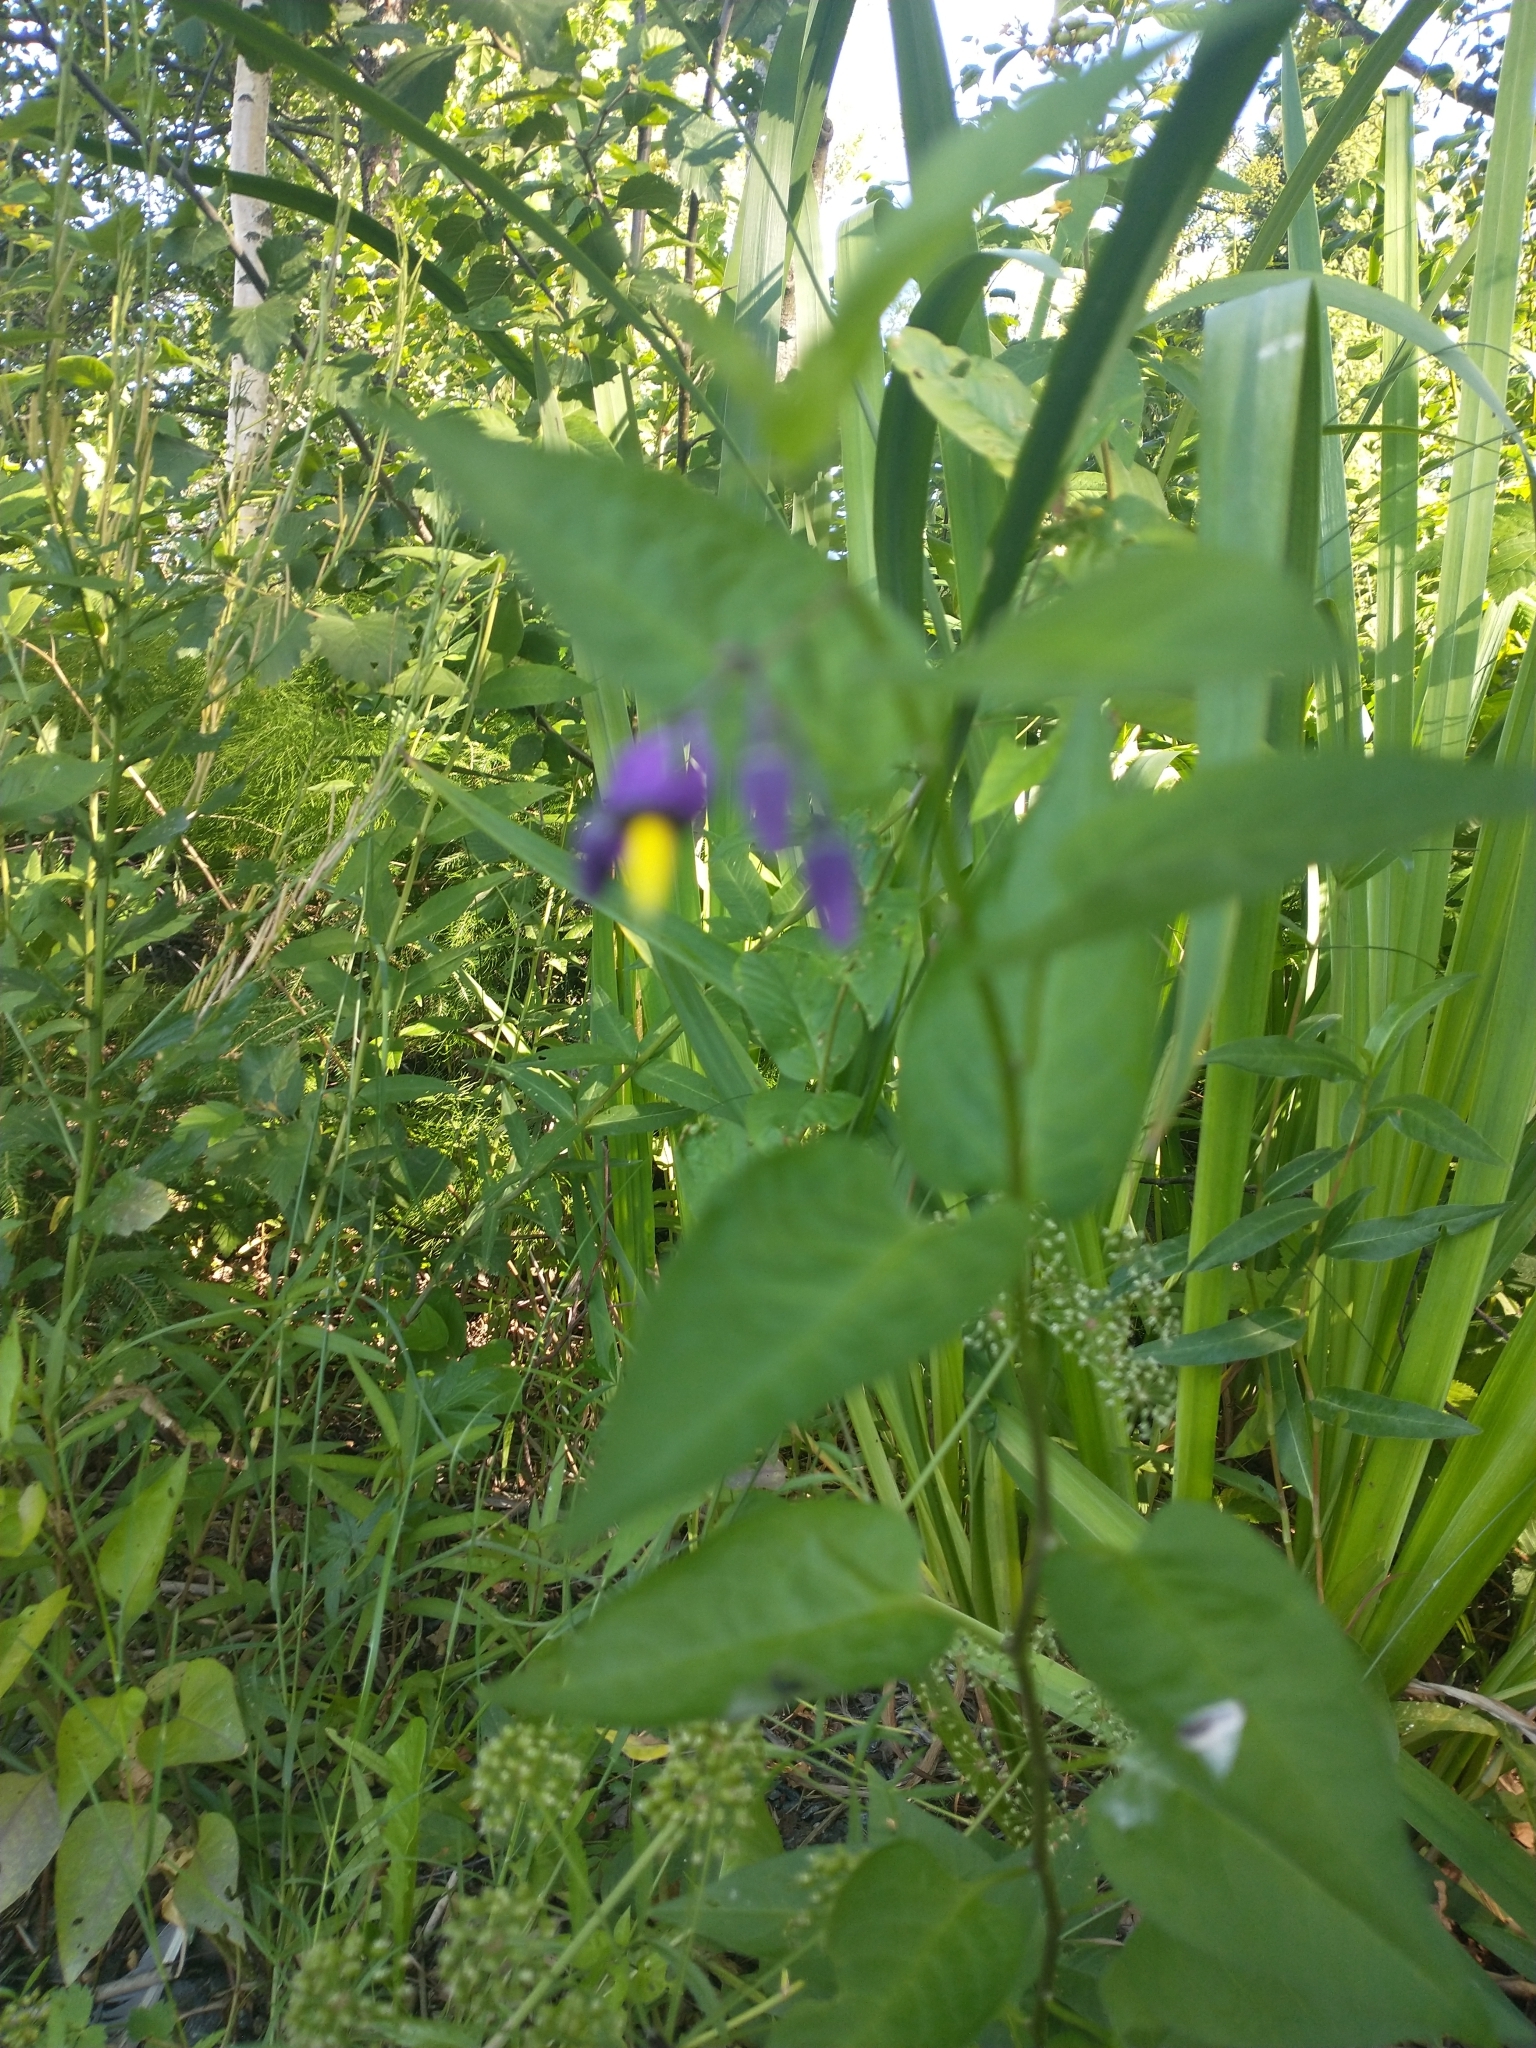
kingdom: Plantae
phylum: Tracheophyta
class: Magnoliopsida
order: Solanales
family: Solanaceae
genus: Solanum
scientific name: Solanum dulcamara
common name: Climbing nightshade
